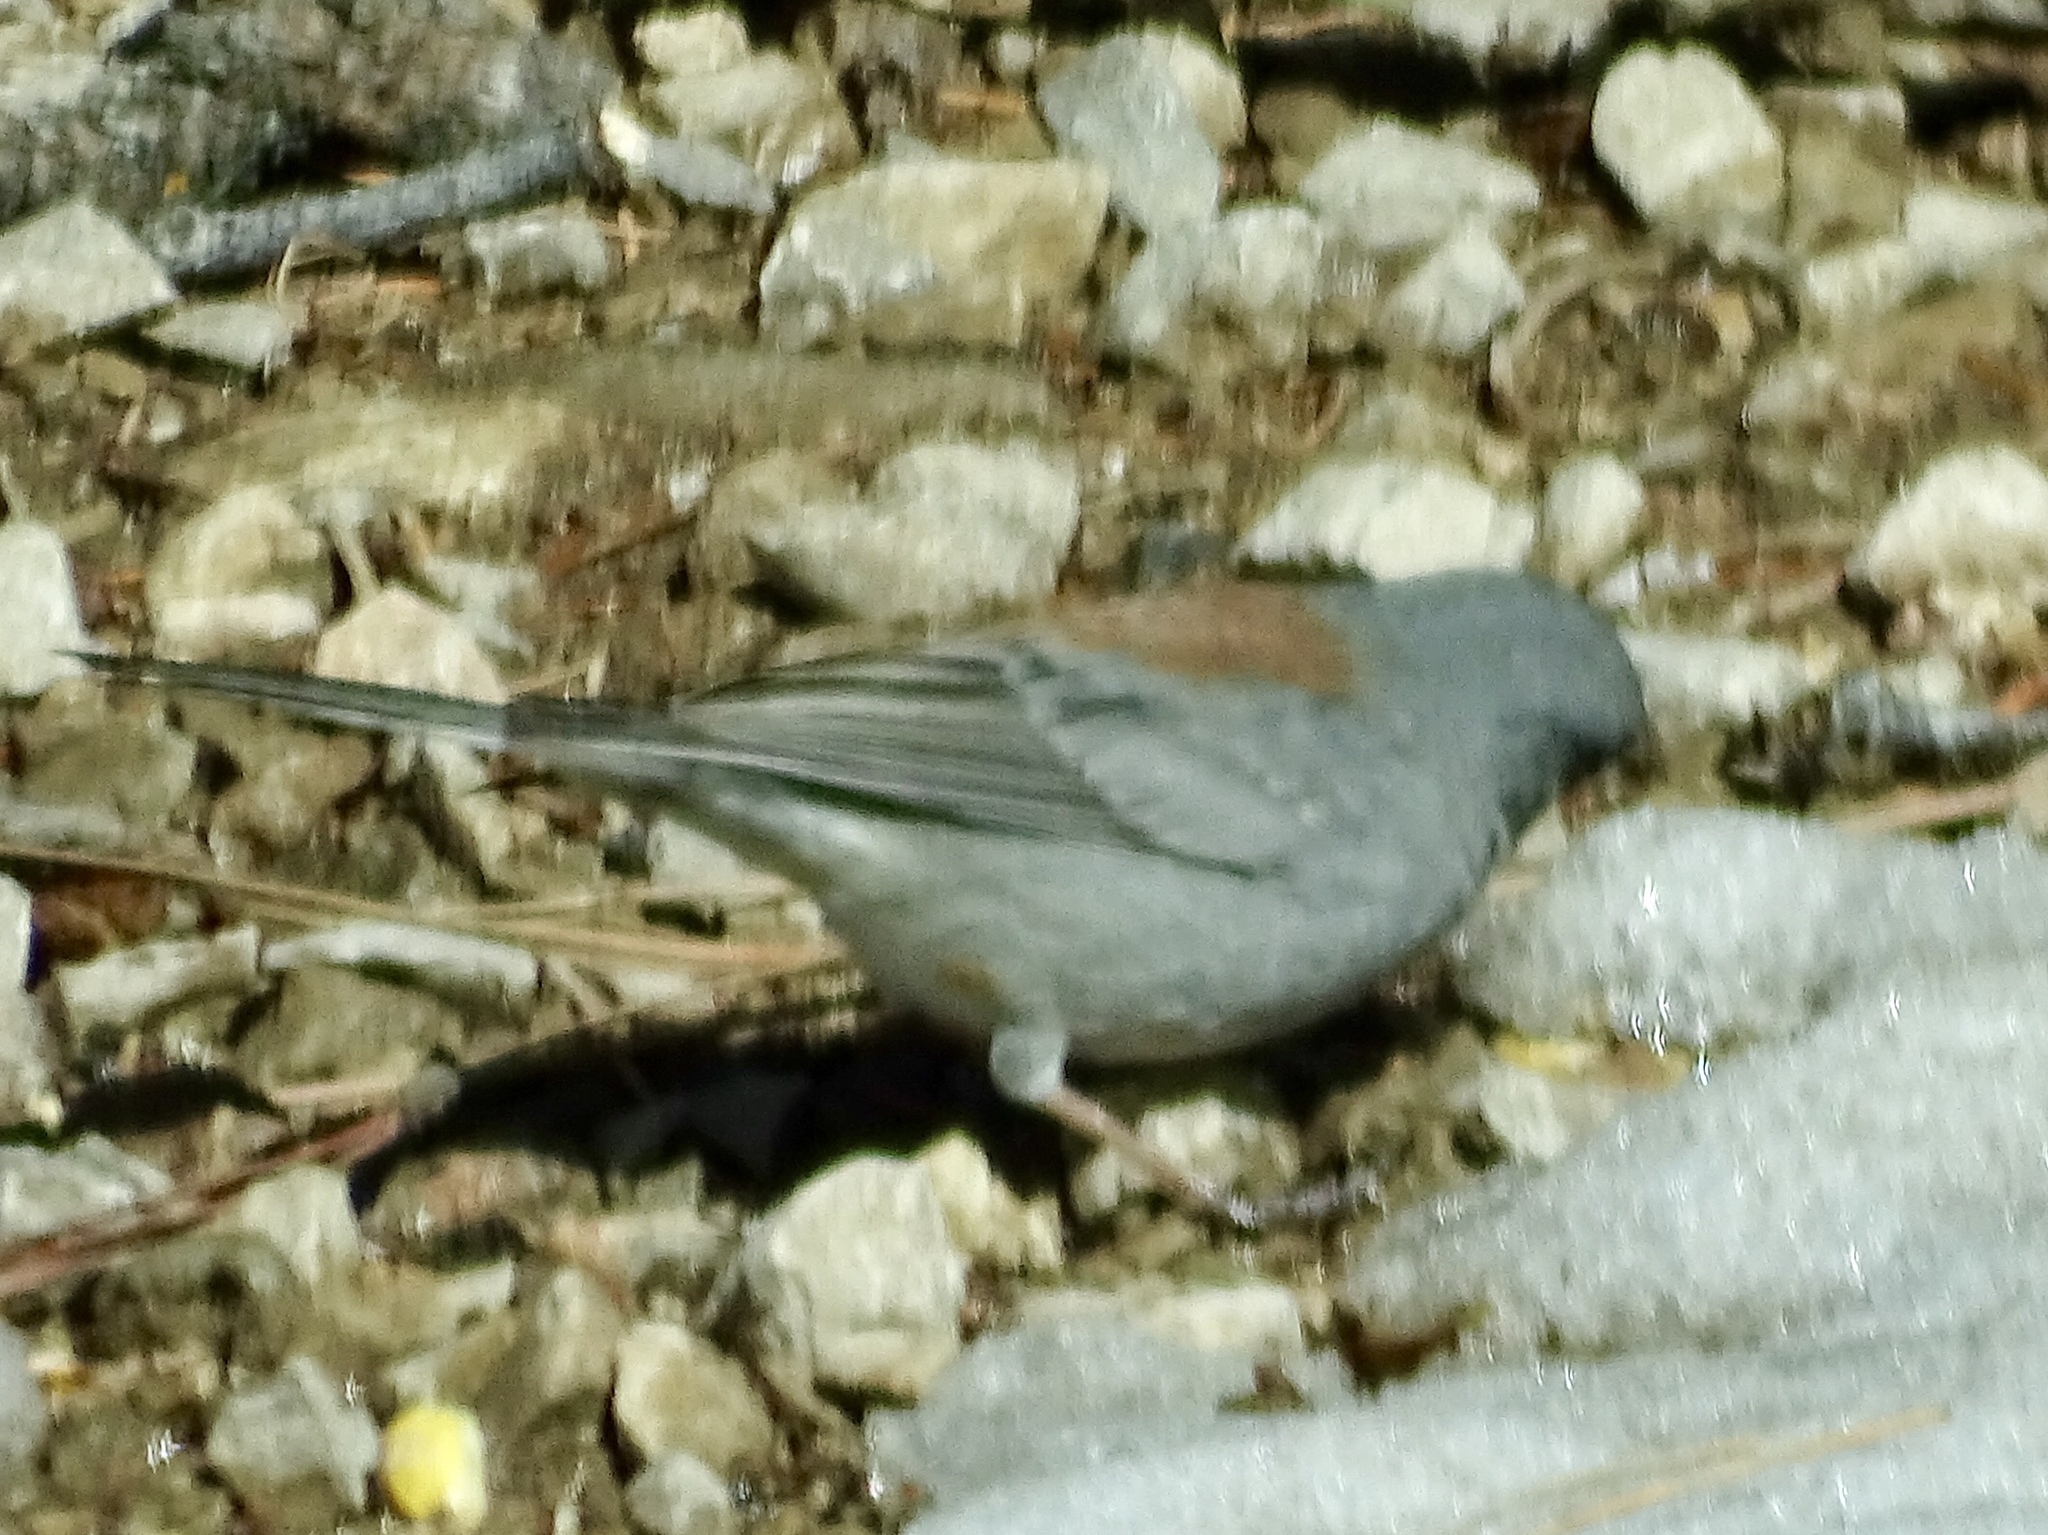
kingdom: Animalia
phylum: Chordata
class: Aves
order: Passeriformes
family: Passerellidae
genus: Junco
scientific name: Junco hyemalis
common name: Dark-eyed junco
